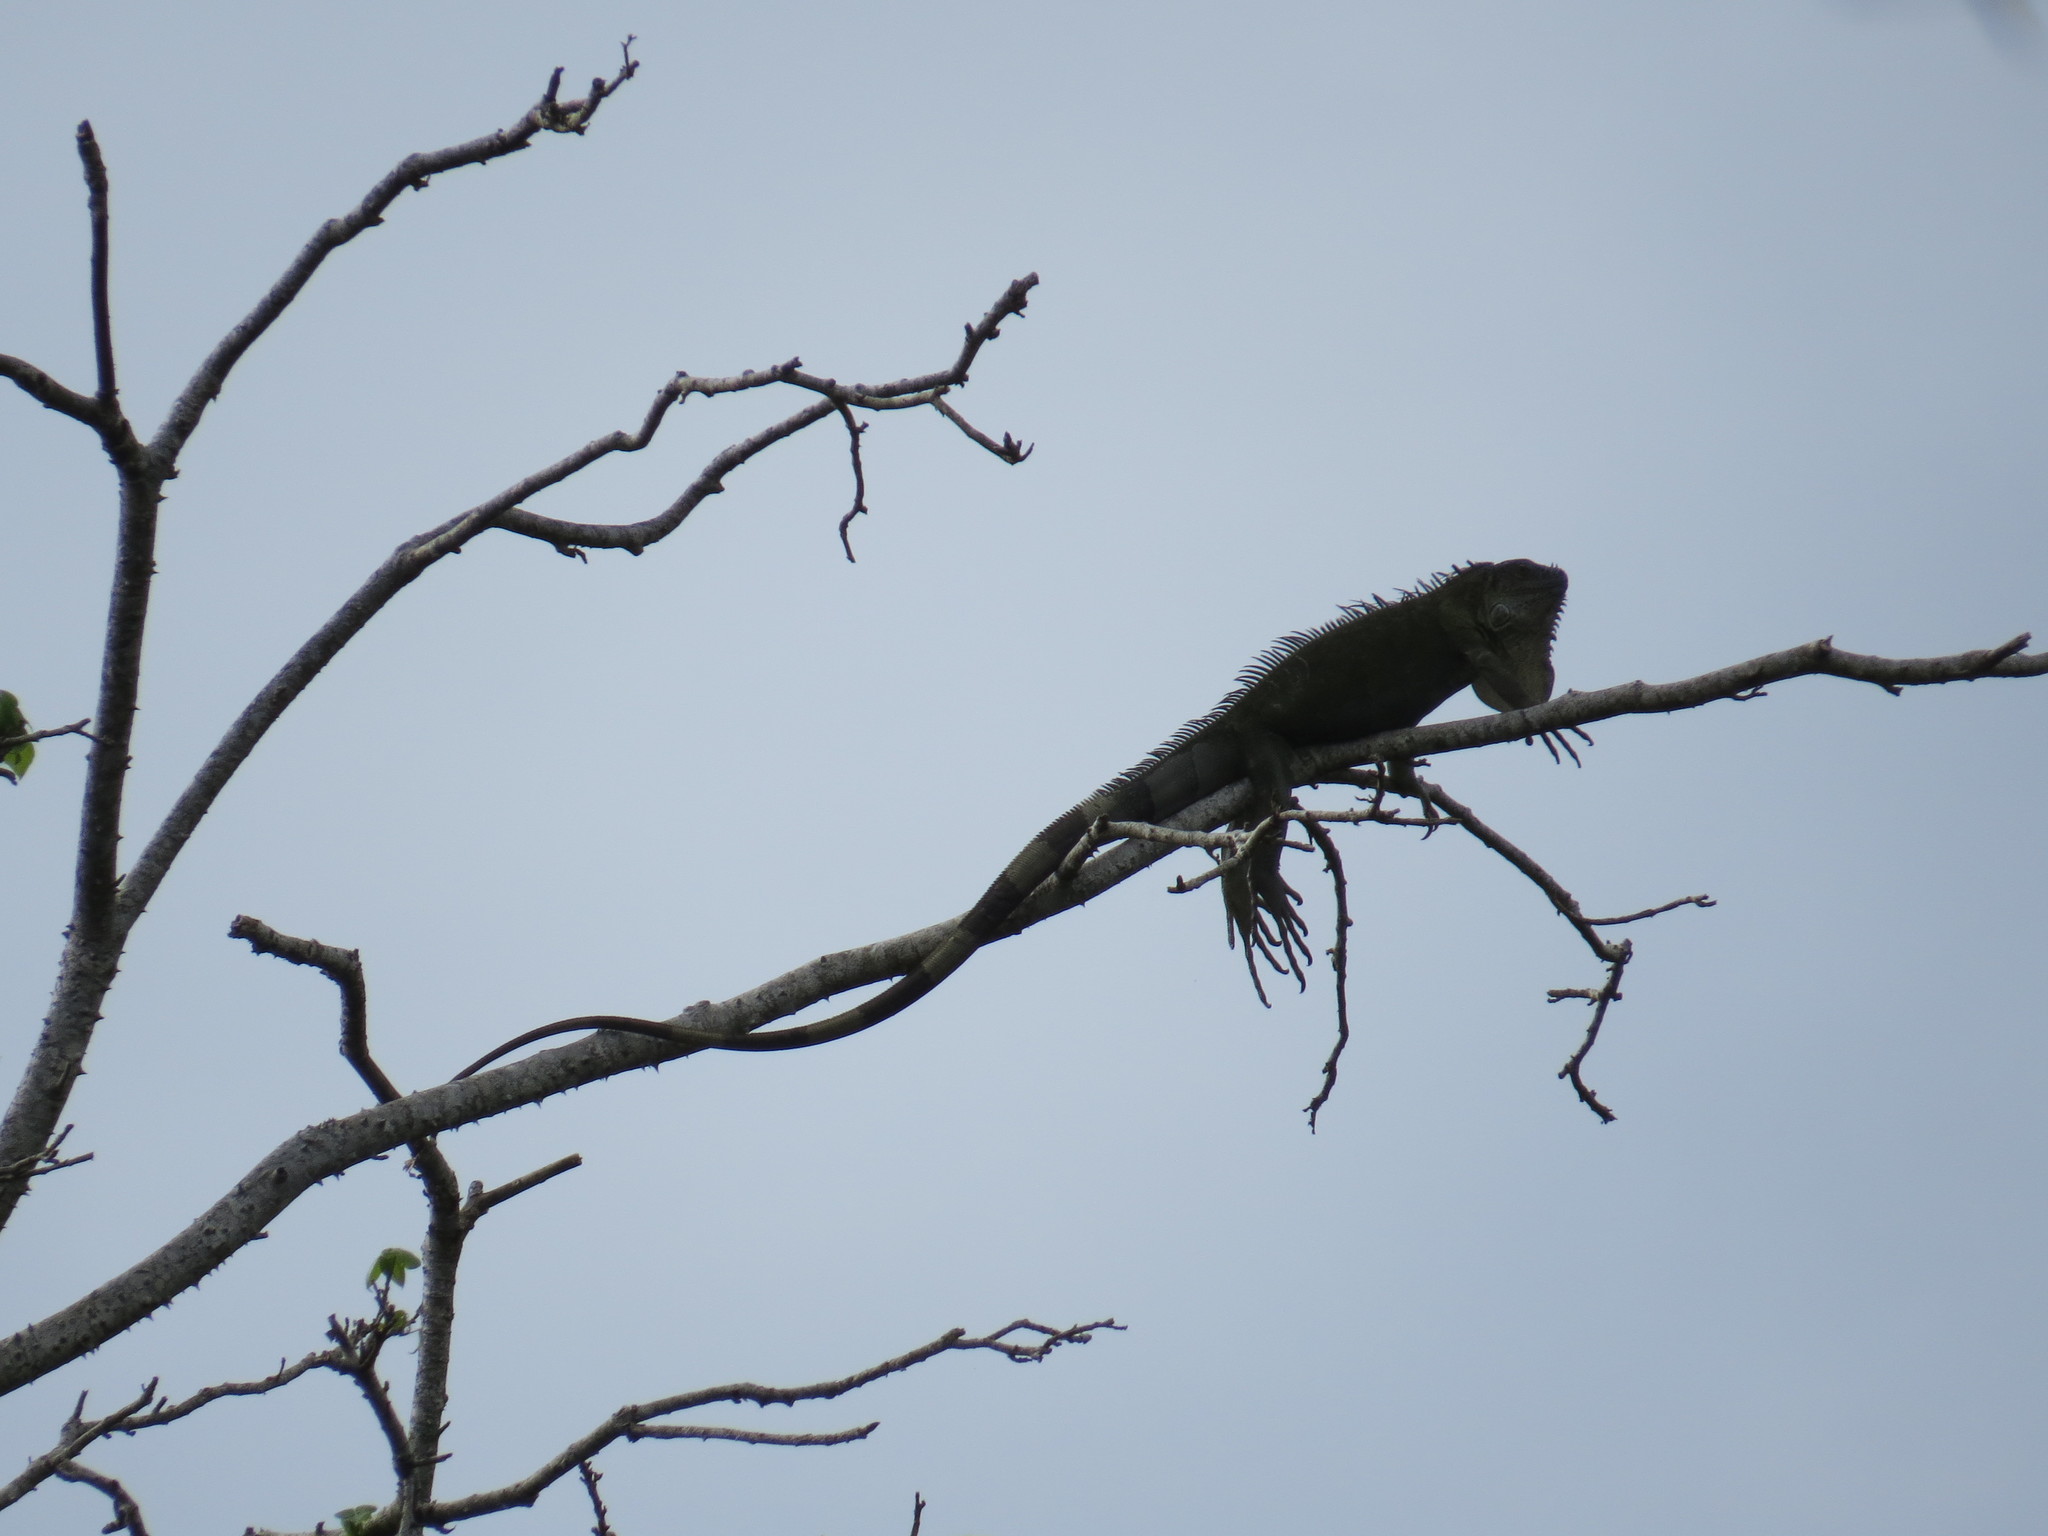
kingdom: Animalia
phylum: Chordata
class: Squamata
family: Iguanidae
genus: Iguana
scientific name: Iguana iguana
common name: Green iguana
